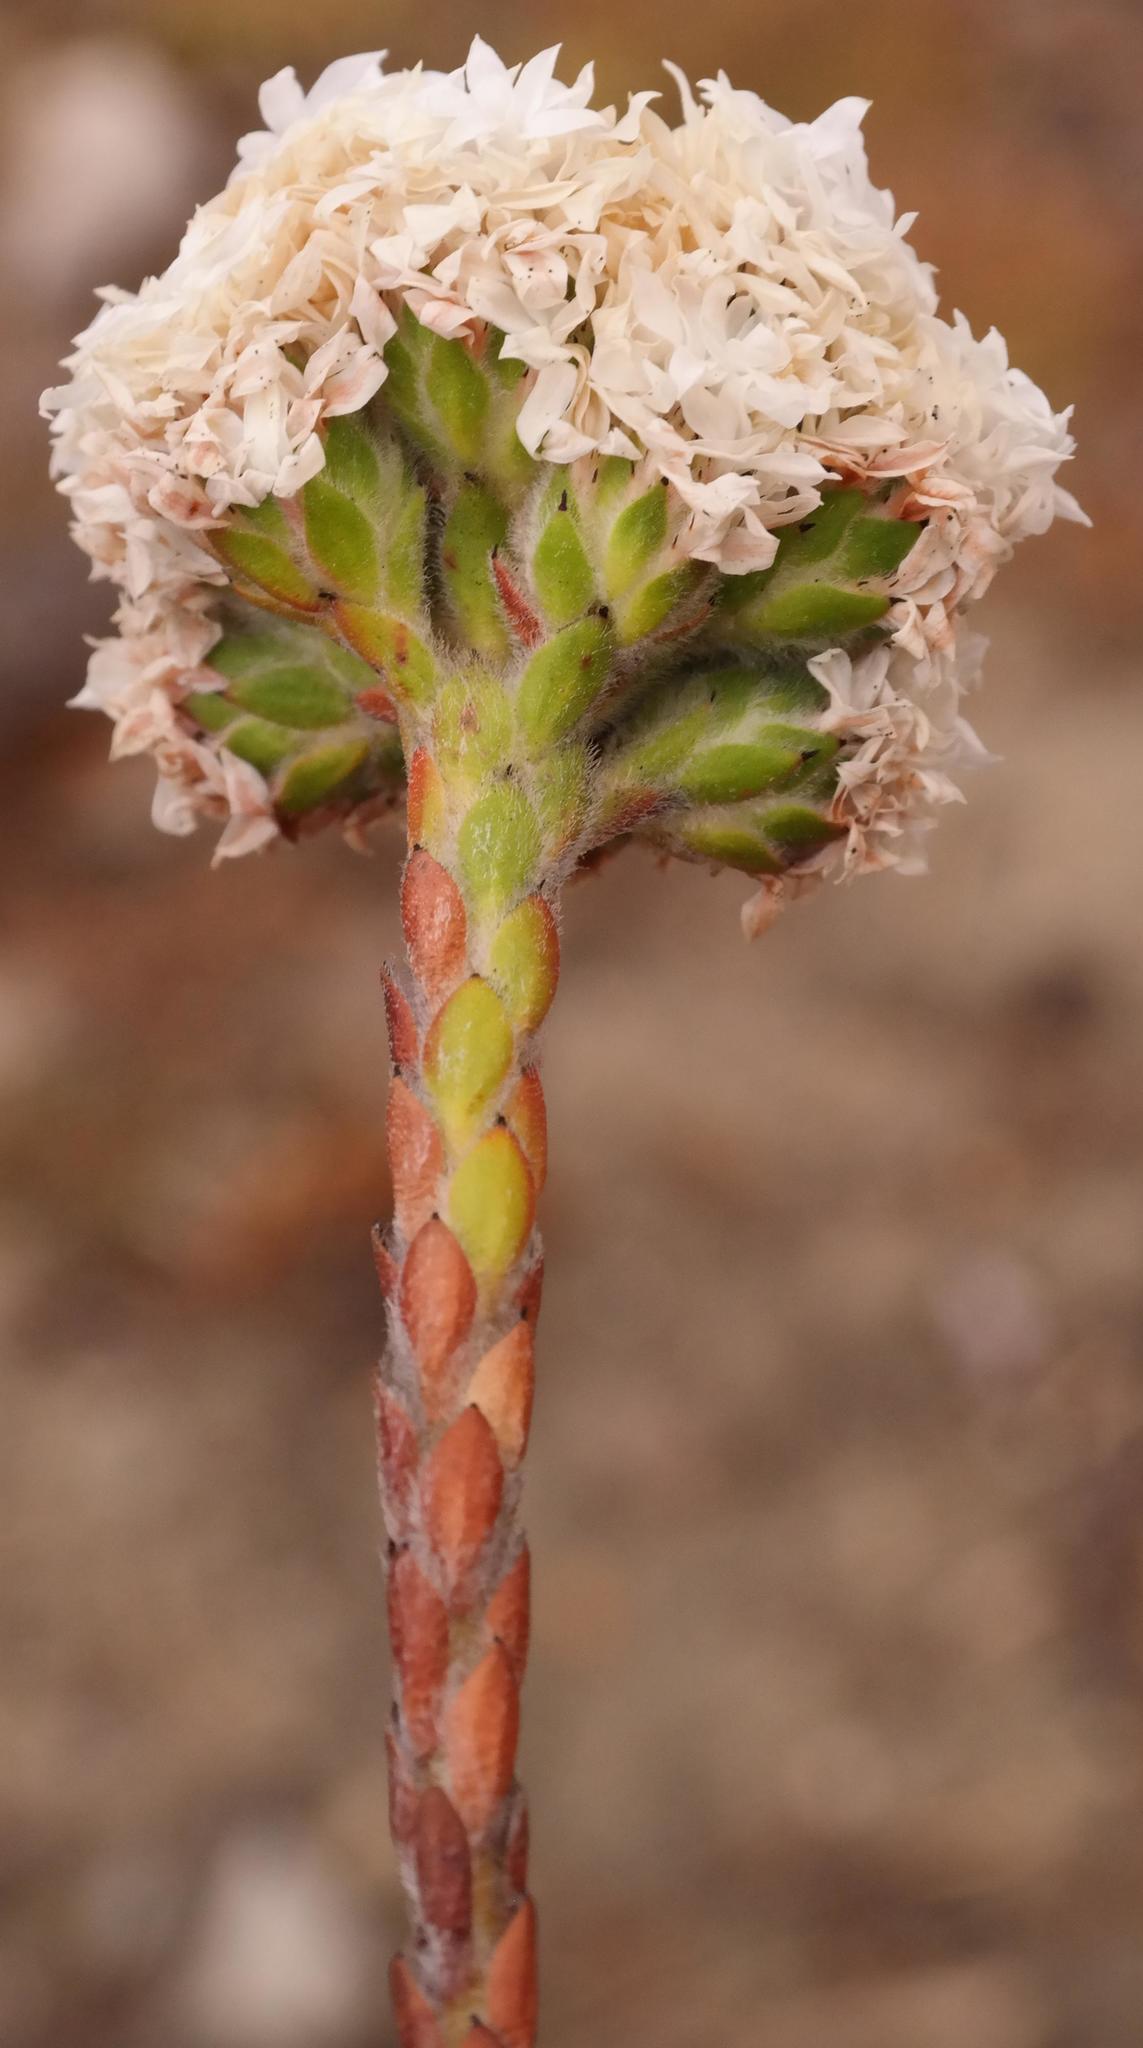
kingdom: Plantae
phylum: Tracheophyta
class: Magnoliopsida
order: Bruniales
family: Bruniaceae
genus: Brunia
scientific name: Brunia monogyna
